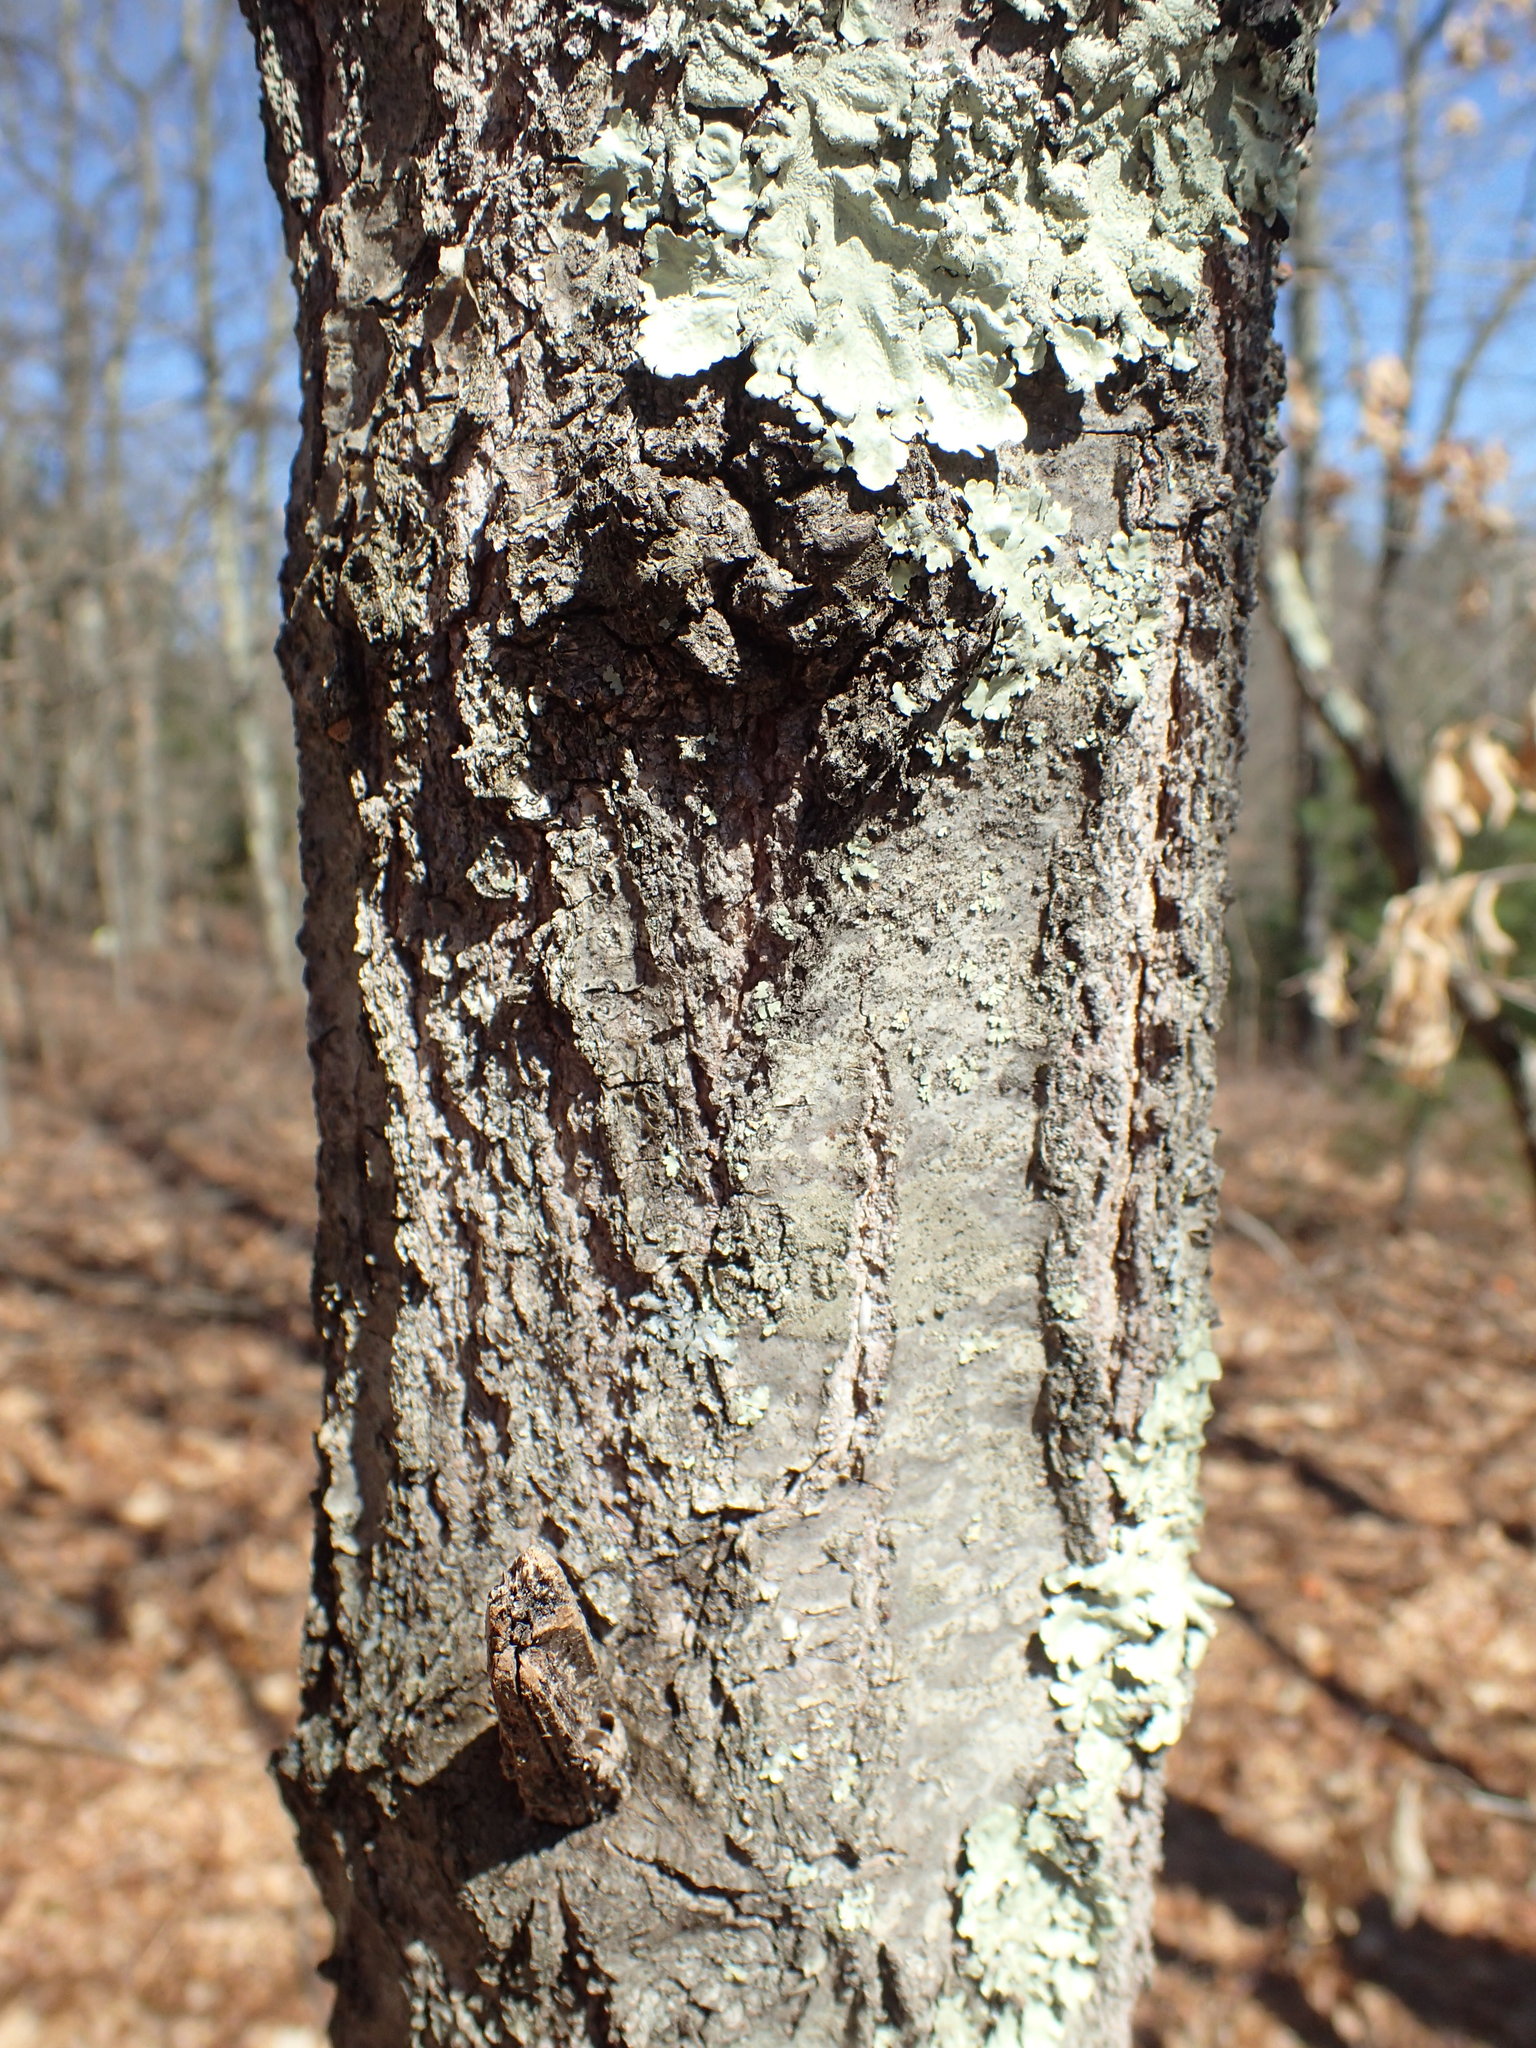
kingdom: Plantae
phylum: Tracheophyta
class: Magnoliopsida
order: Fagales
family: Fagaceae
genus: Quercus
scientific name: Quercus coccinea
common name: Scarlet oak
